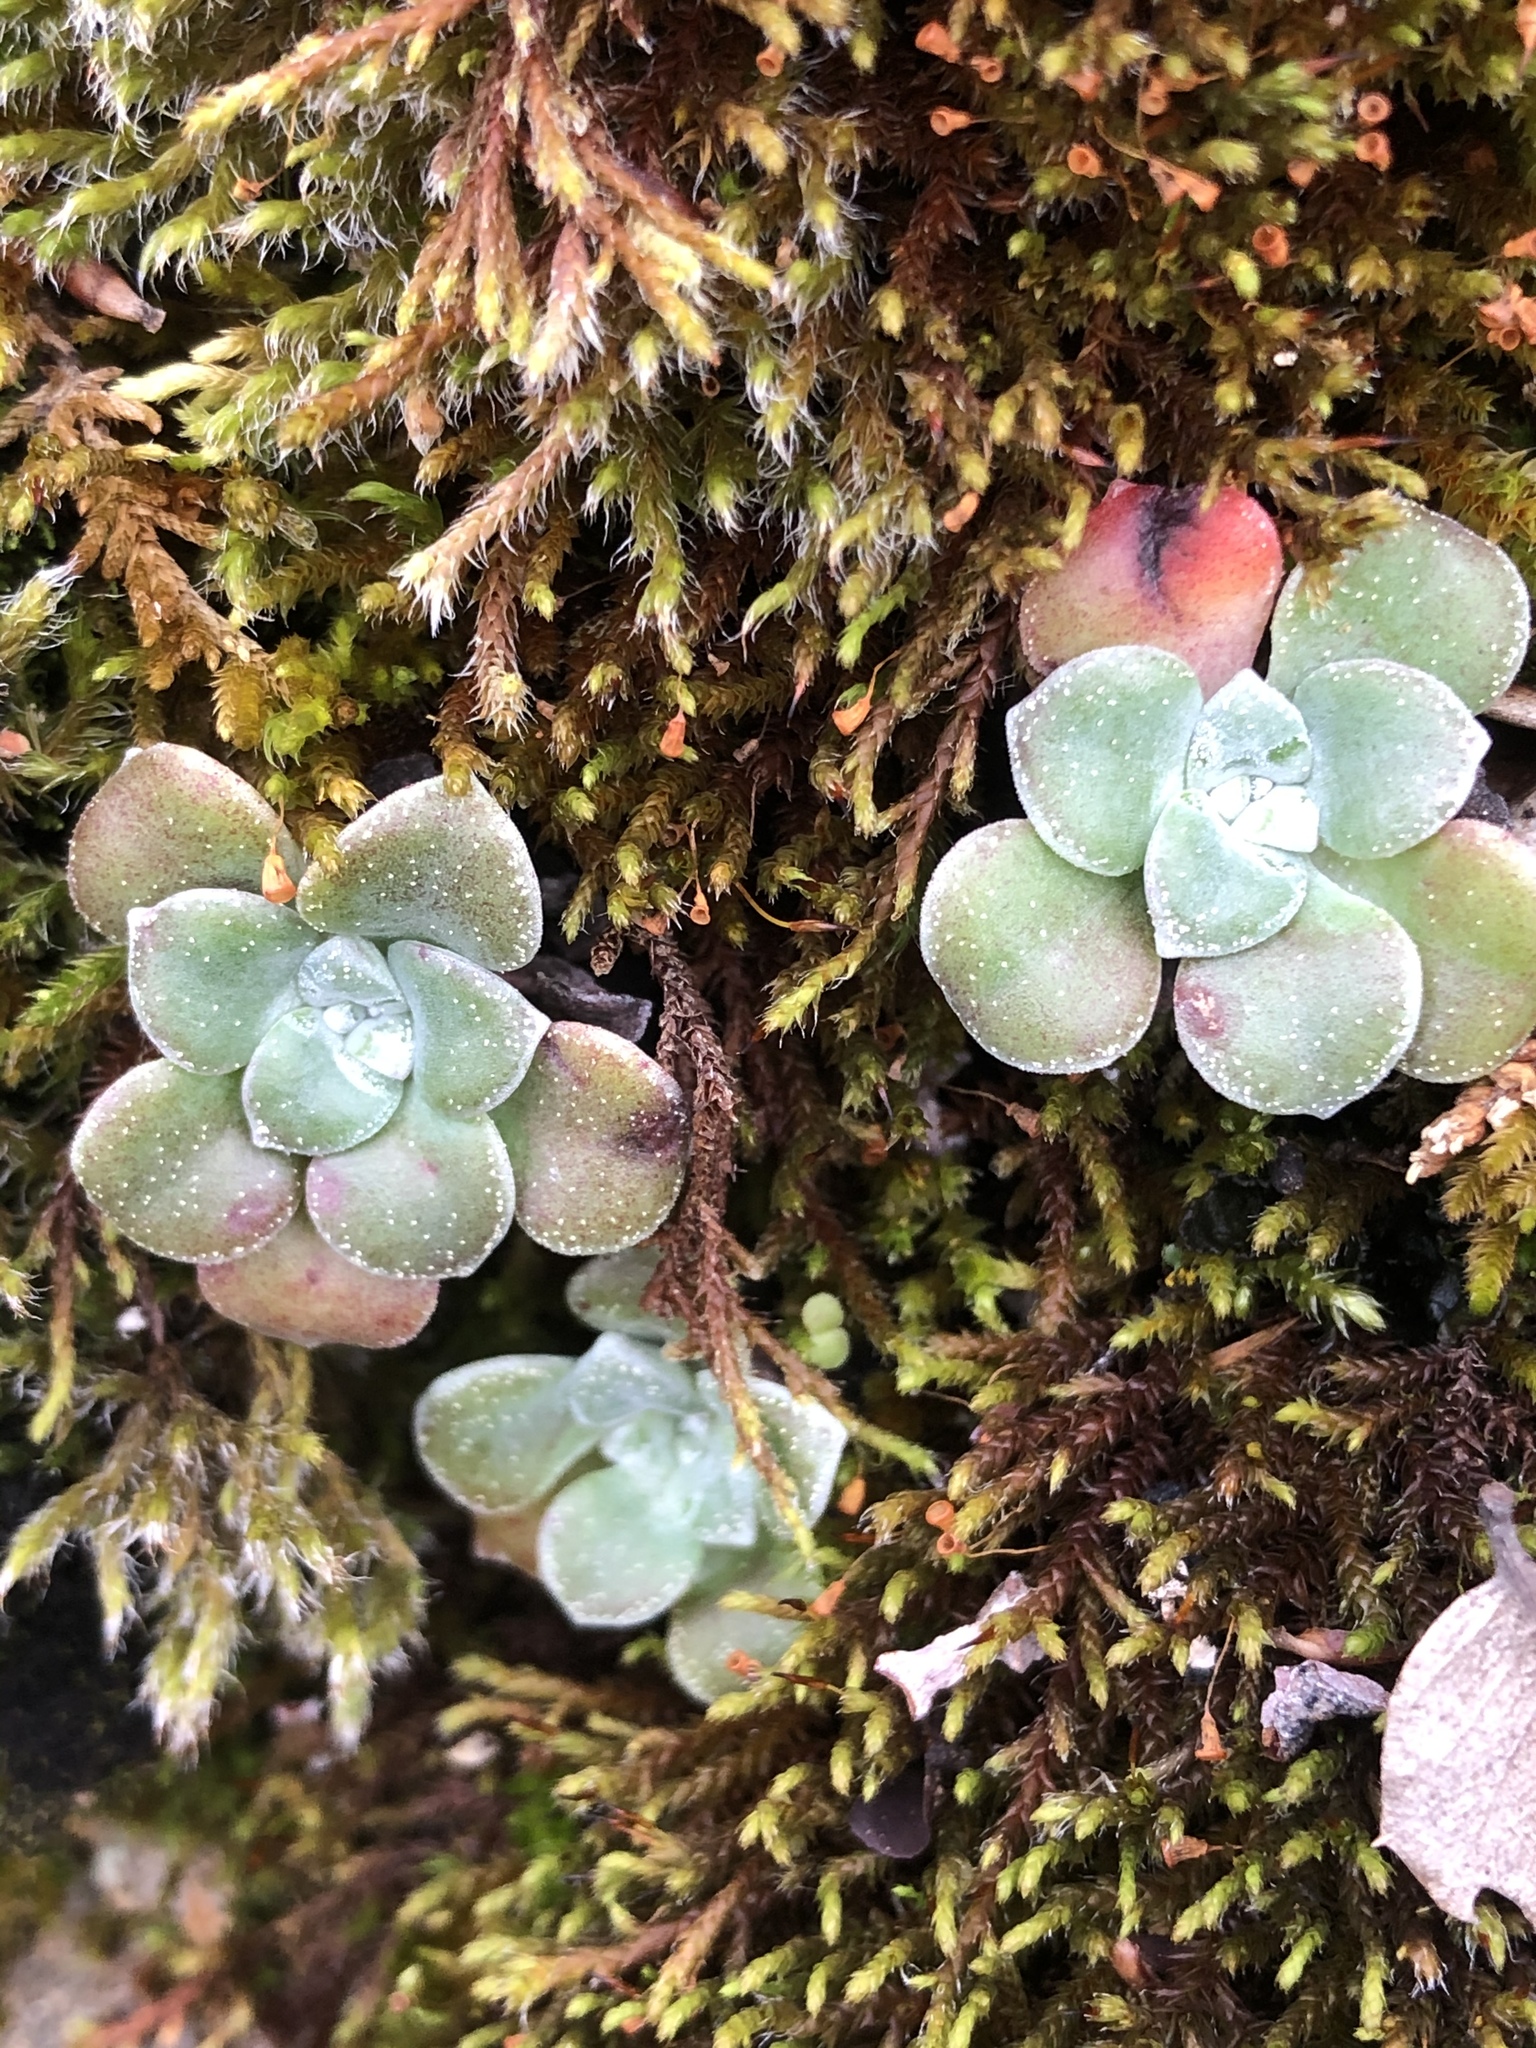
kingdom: Plantae
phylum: Tracheophyta
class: Magnoliopsida
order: Saxifragales
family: Crassulaceae
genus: Sedum
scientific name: Sedum spathulifolium
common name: Colorado stonecrop
